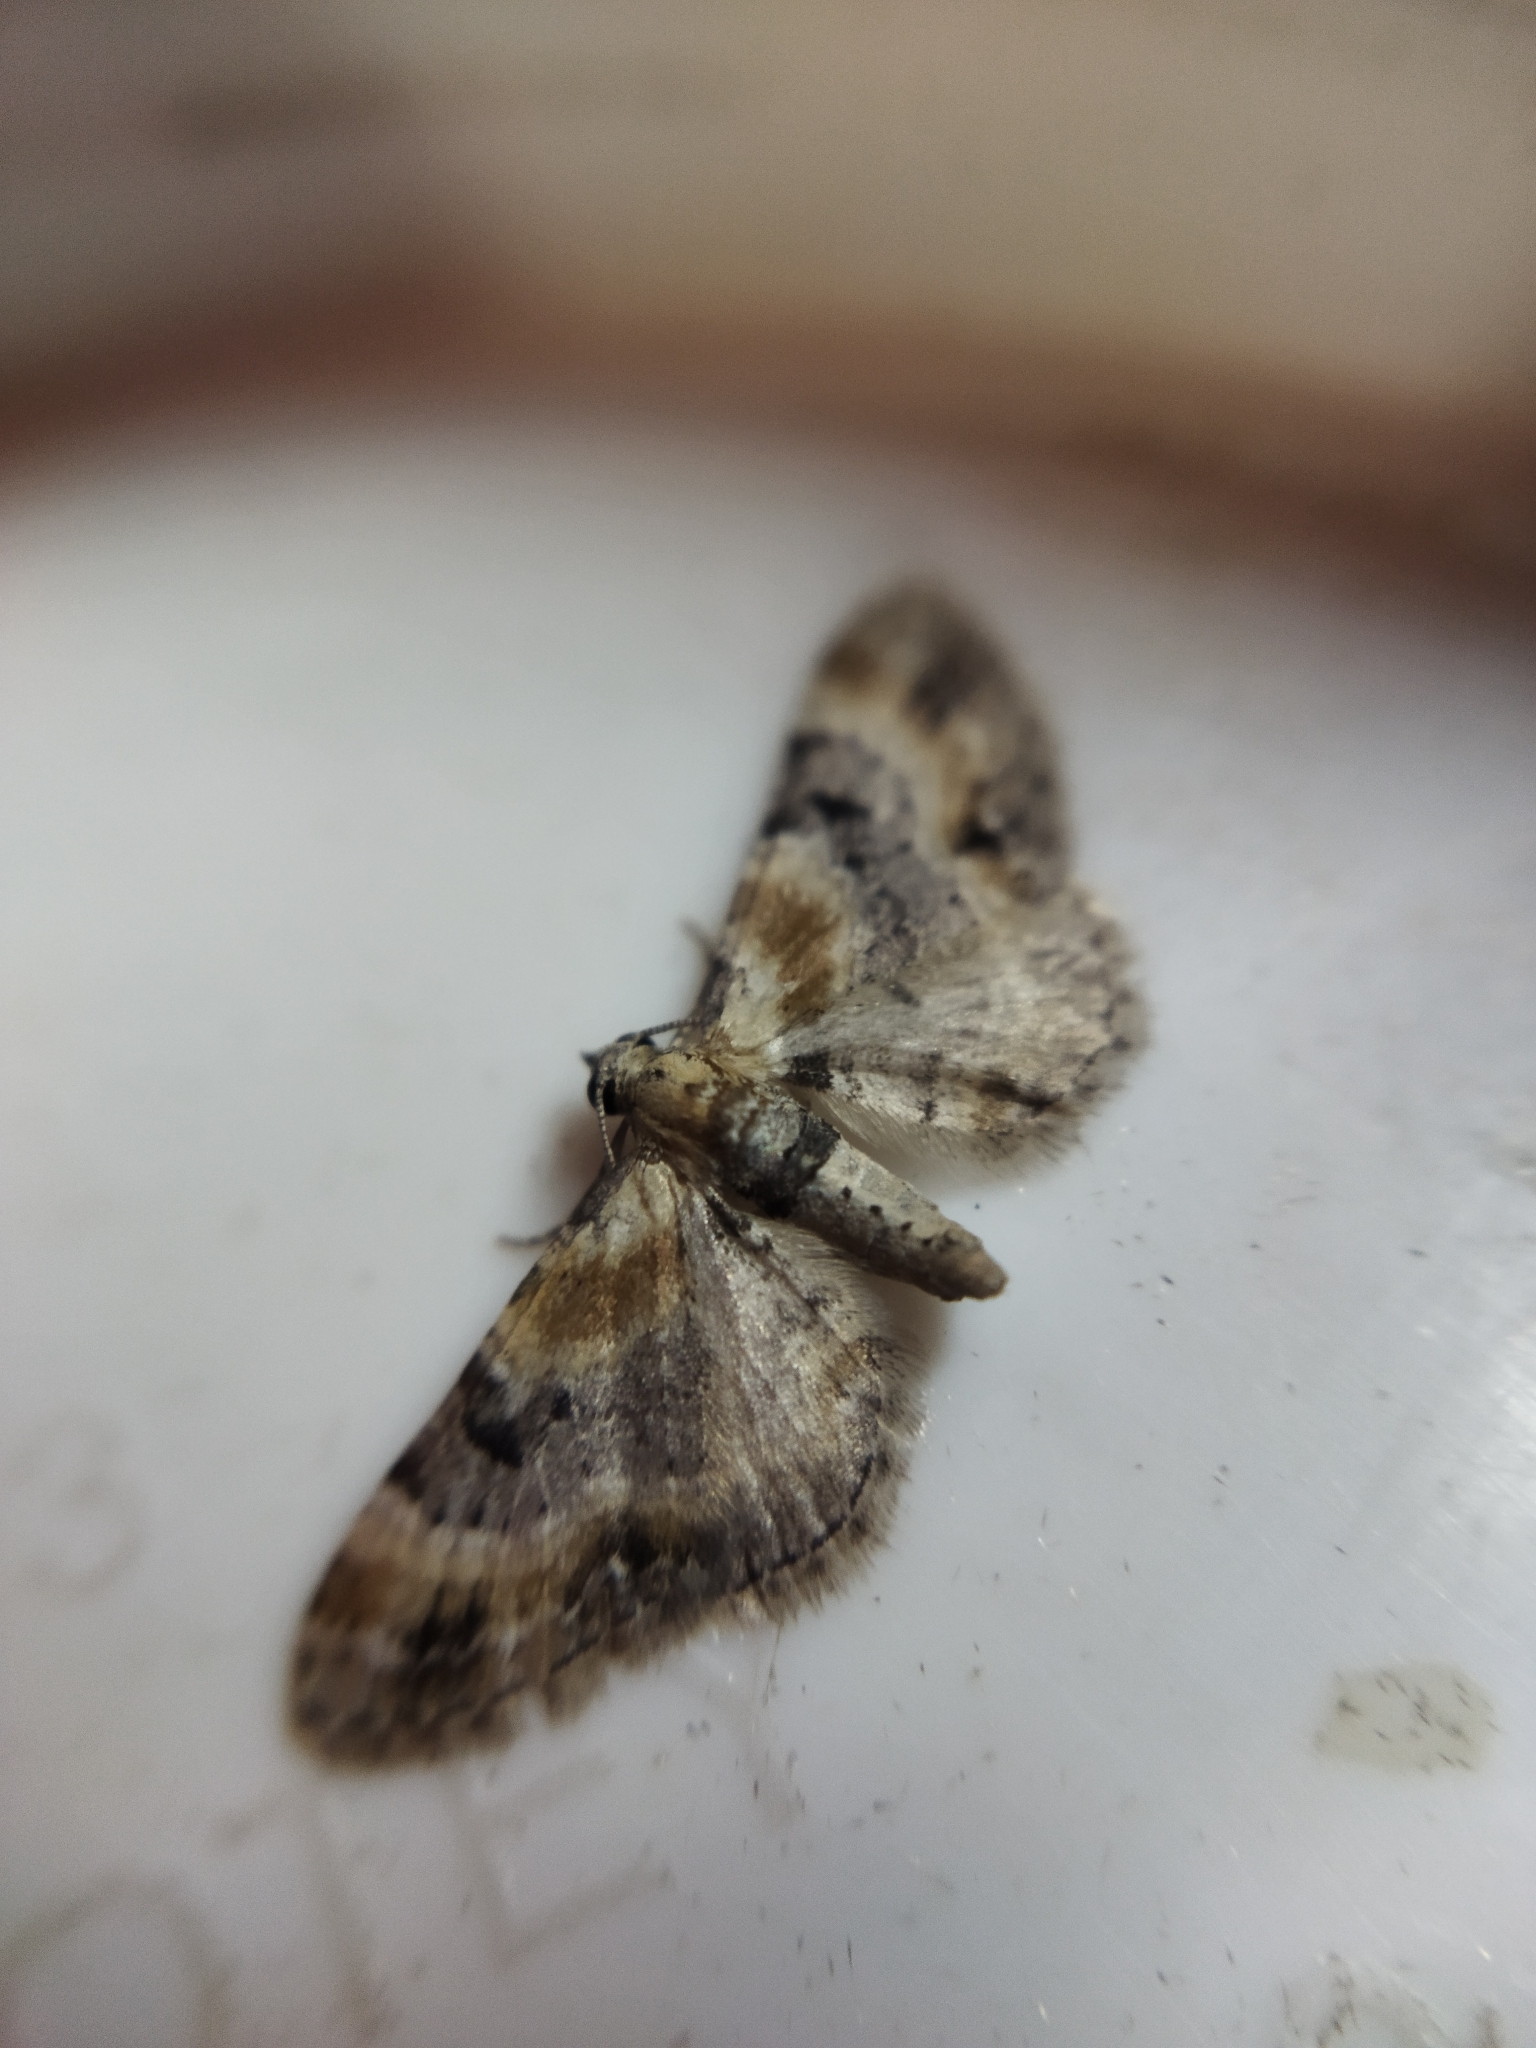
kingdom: Animalia
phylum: Arthropoda
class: Insecta
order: Lepidoptera
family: Geometridae
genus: Eupithecia
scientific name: Eupithecia linariata
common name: Toadflax pug
